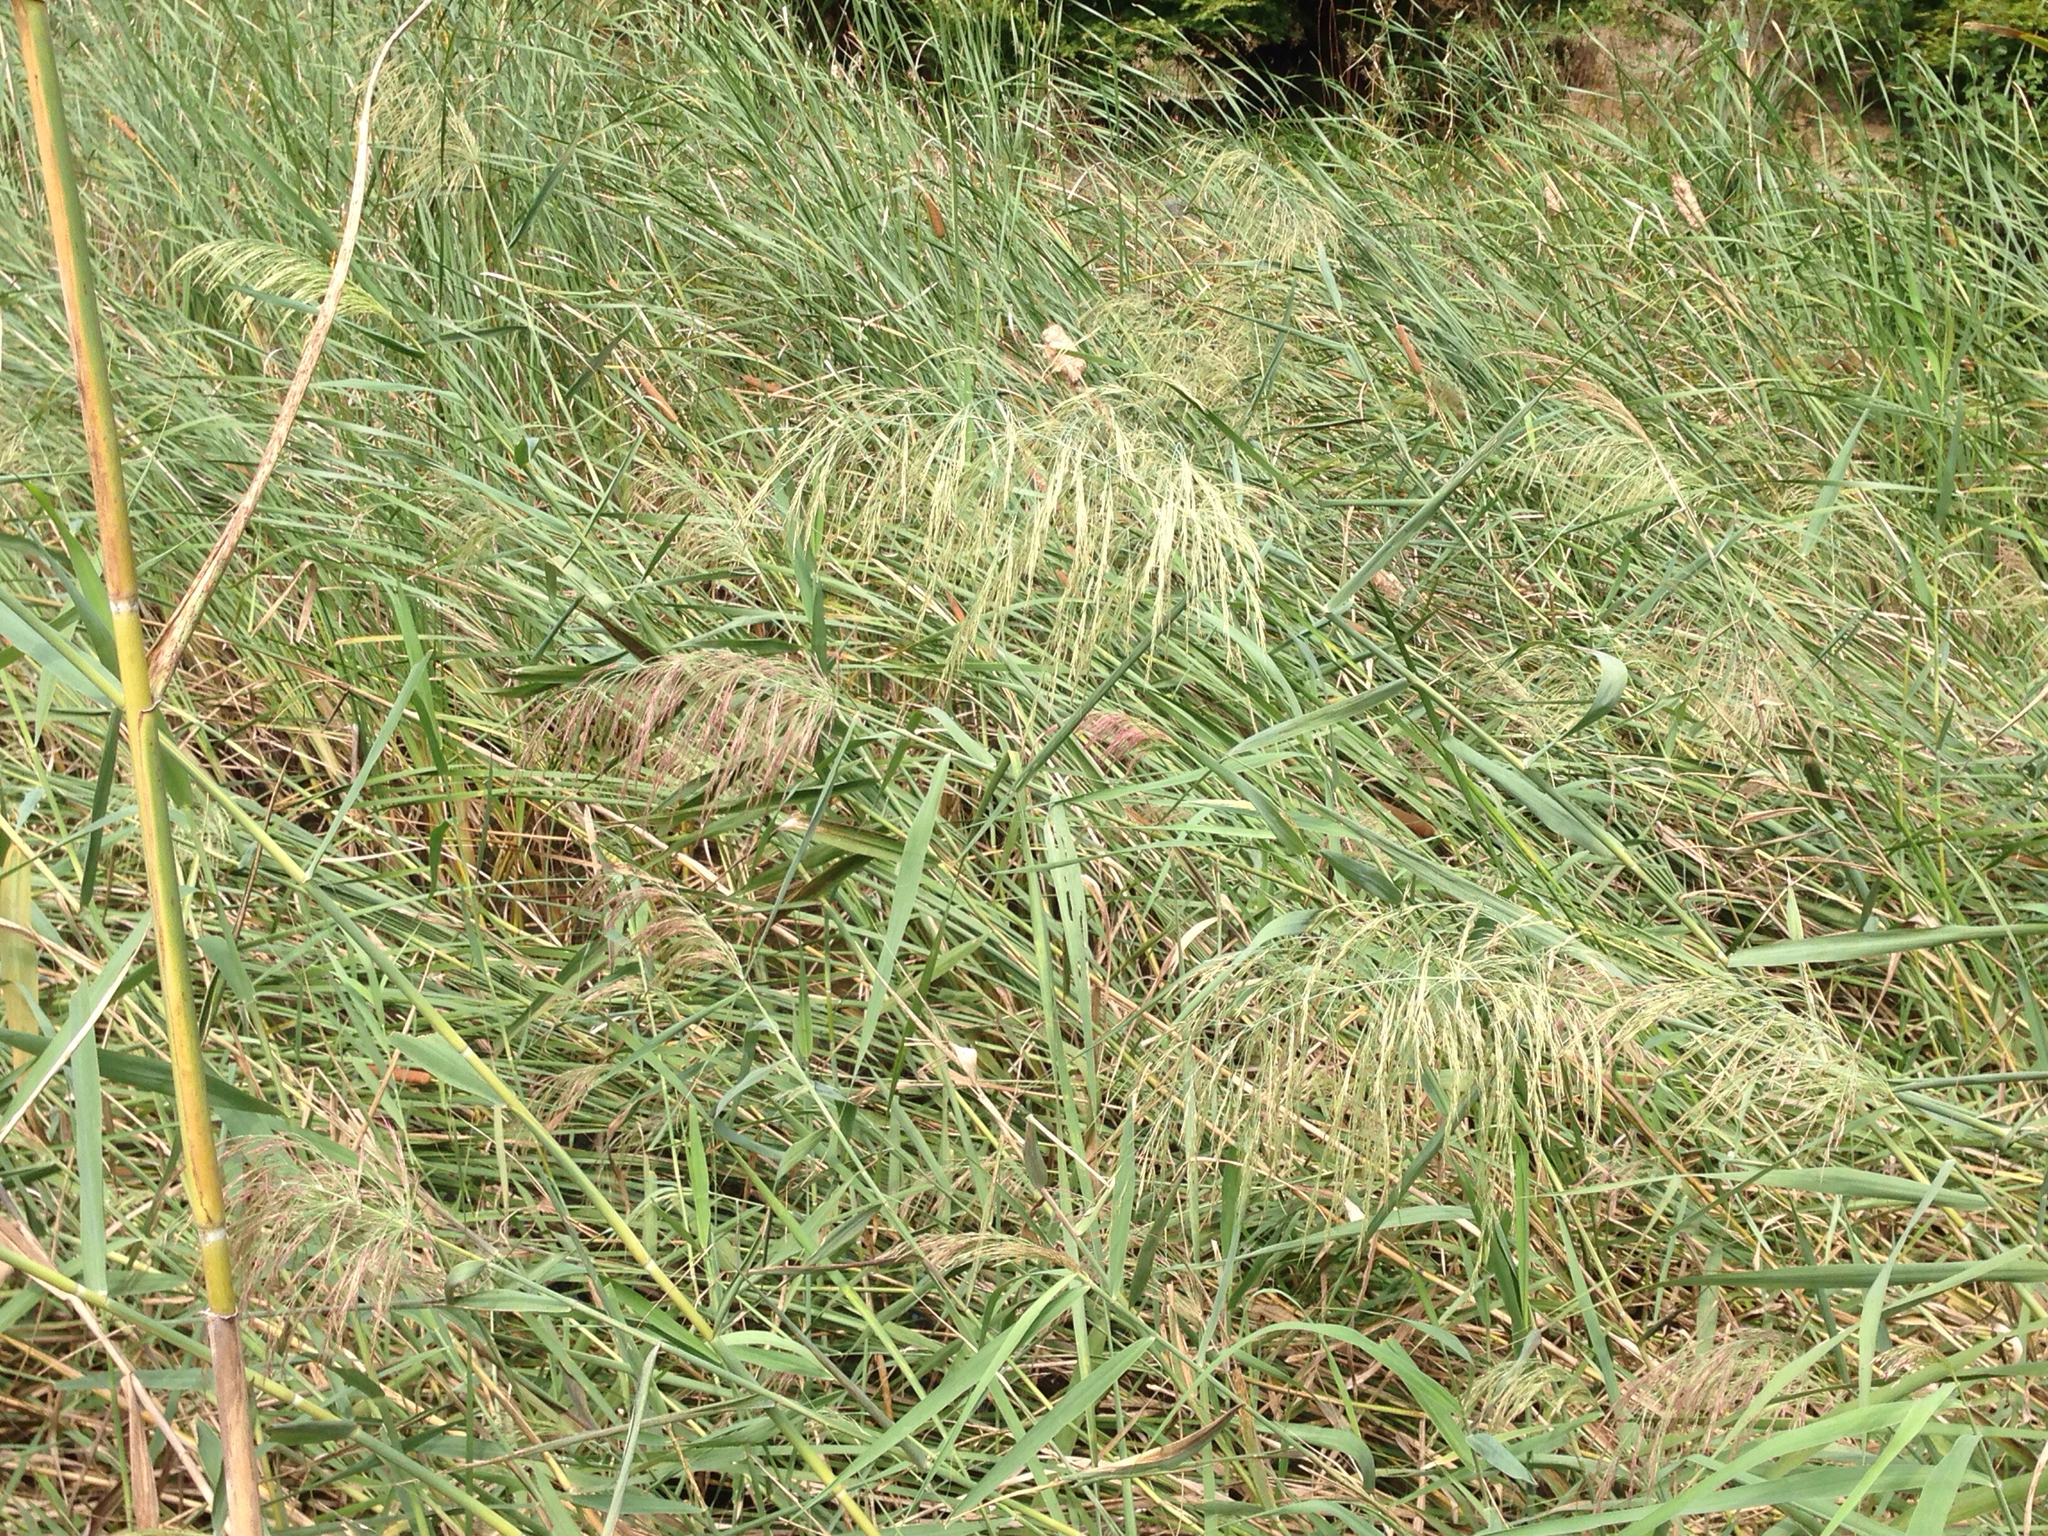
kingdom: Plantae
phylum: Tracheophyta
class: Liliopsida
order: Poales
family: Poaceae
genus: Phragmites
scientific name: Phragmites australis
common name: Common reed
